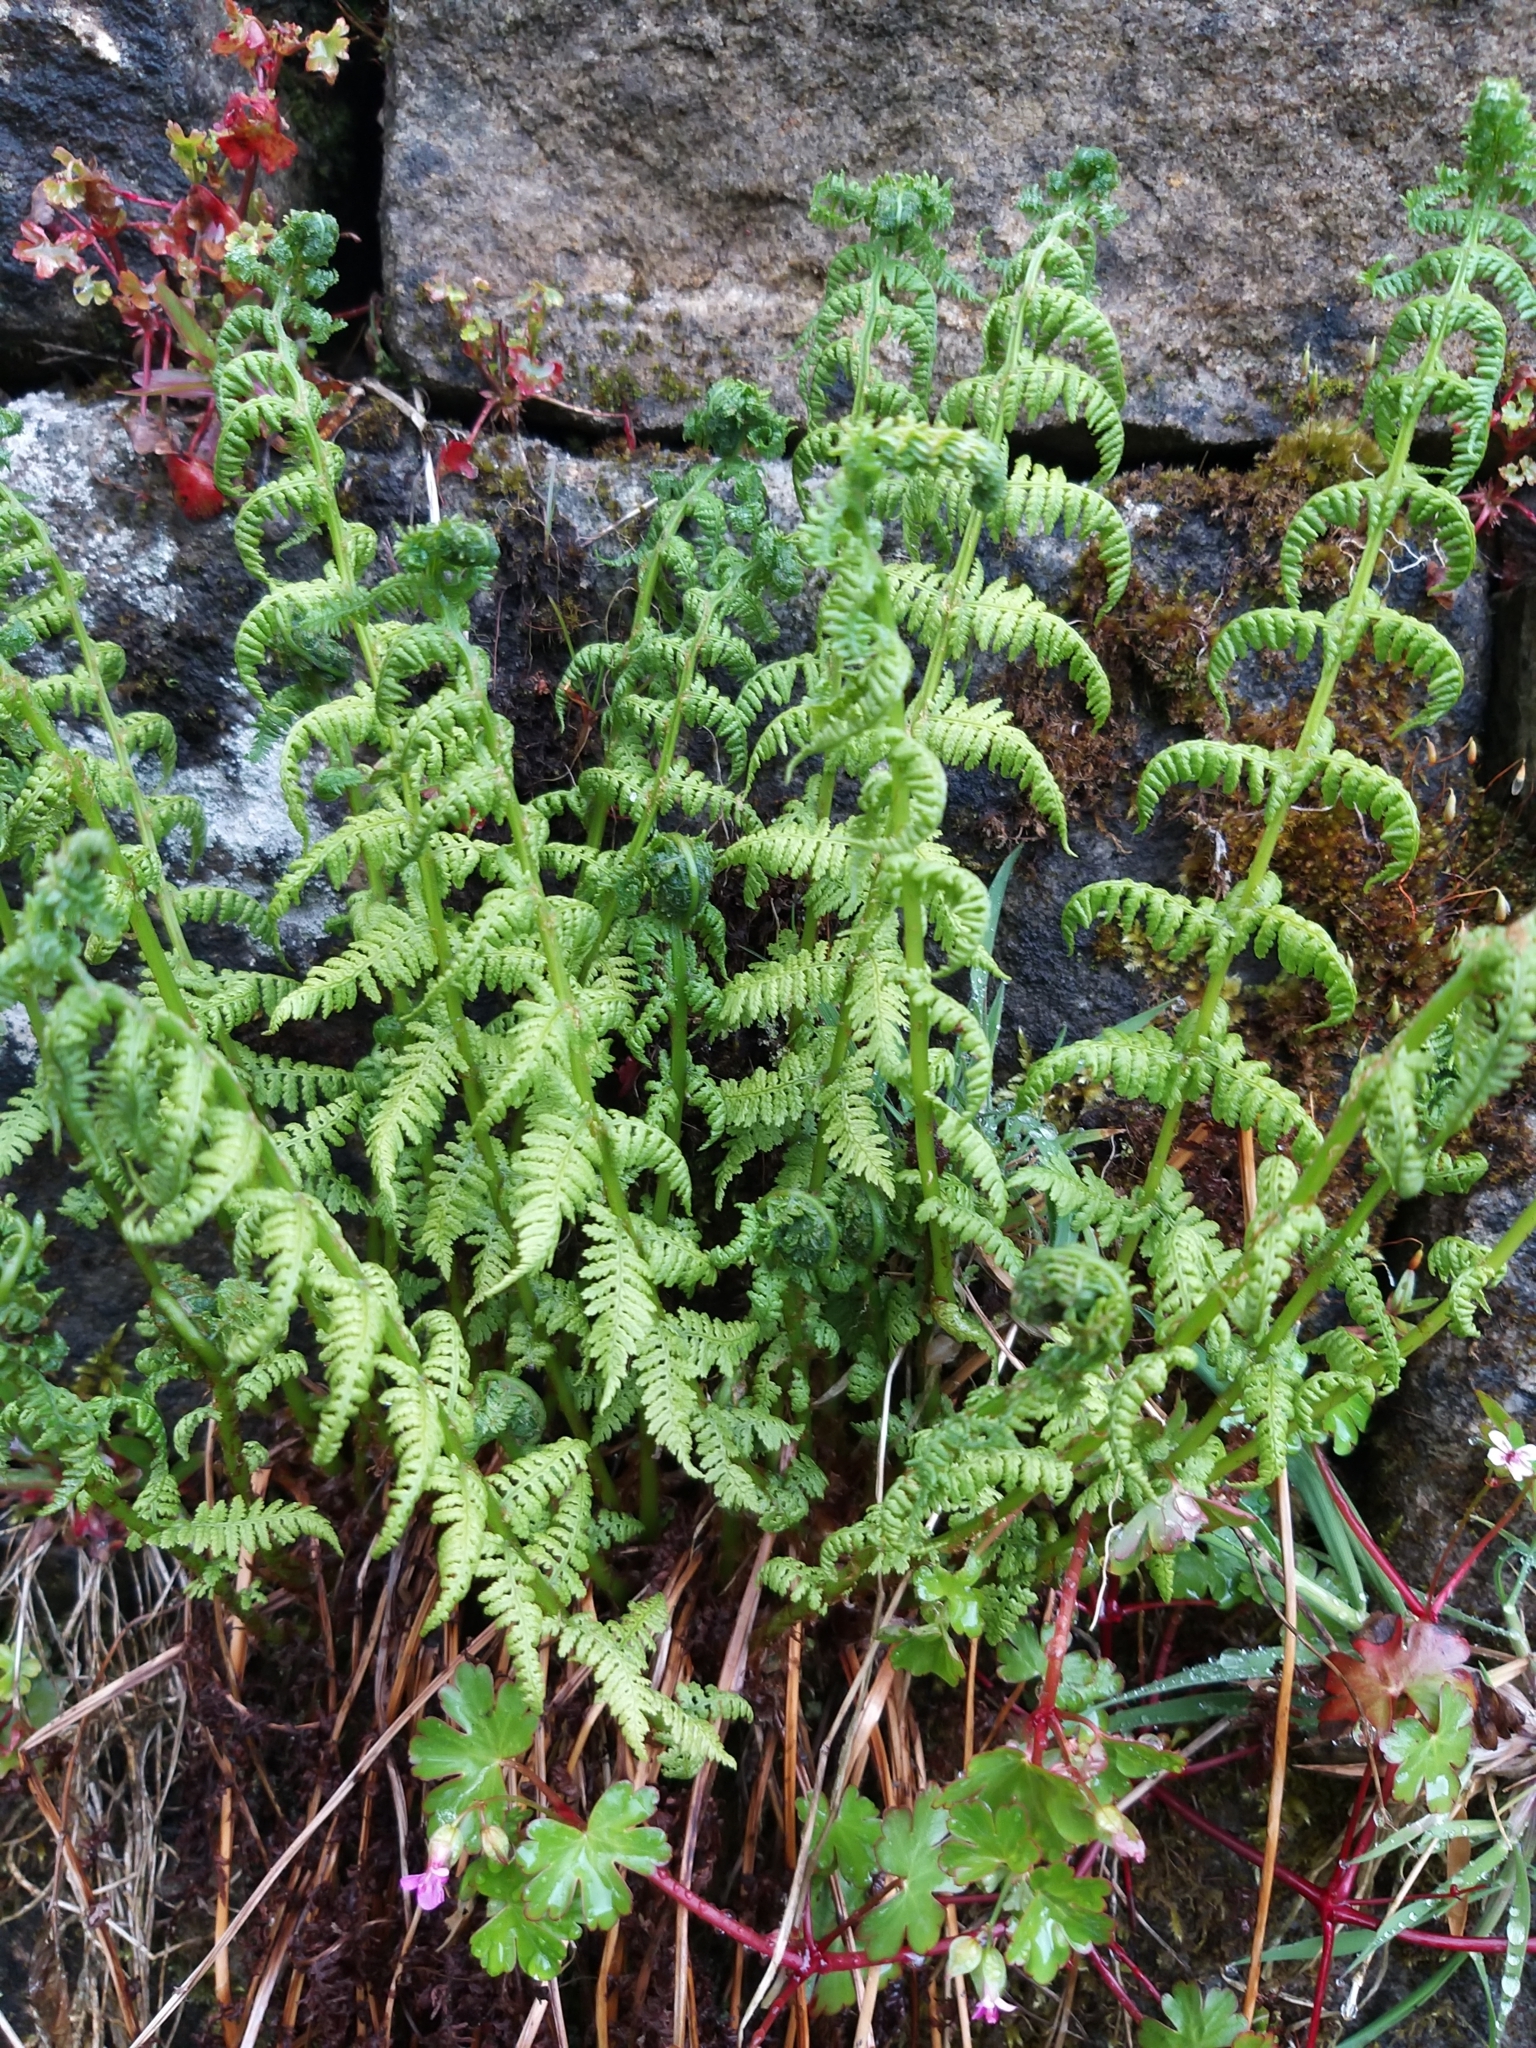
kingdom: Plantae
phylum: Tracheophyta
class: Polypodiopsida
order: Polypodiales
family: Athyriaceae
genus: Athyrium
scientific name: Athyrium filix-femina
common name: Lady fern
